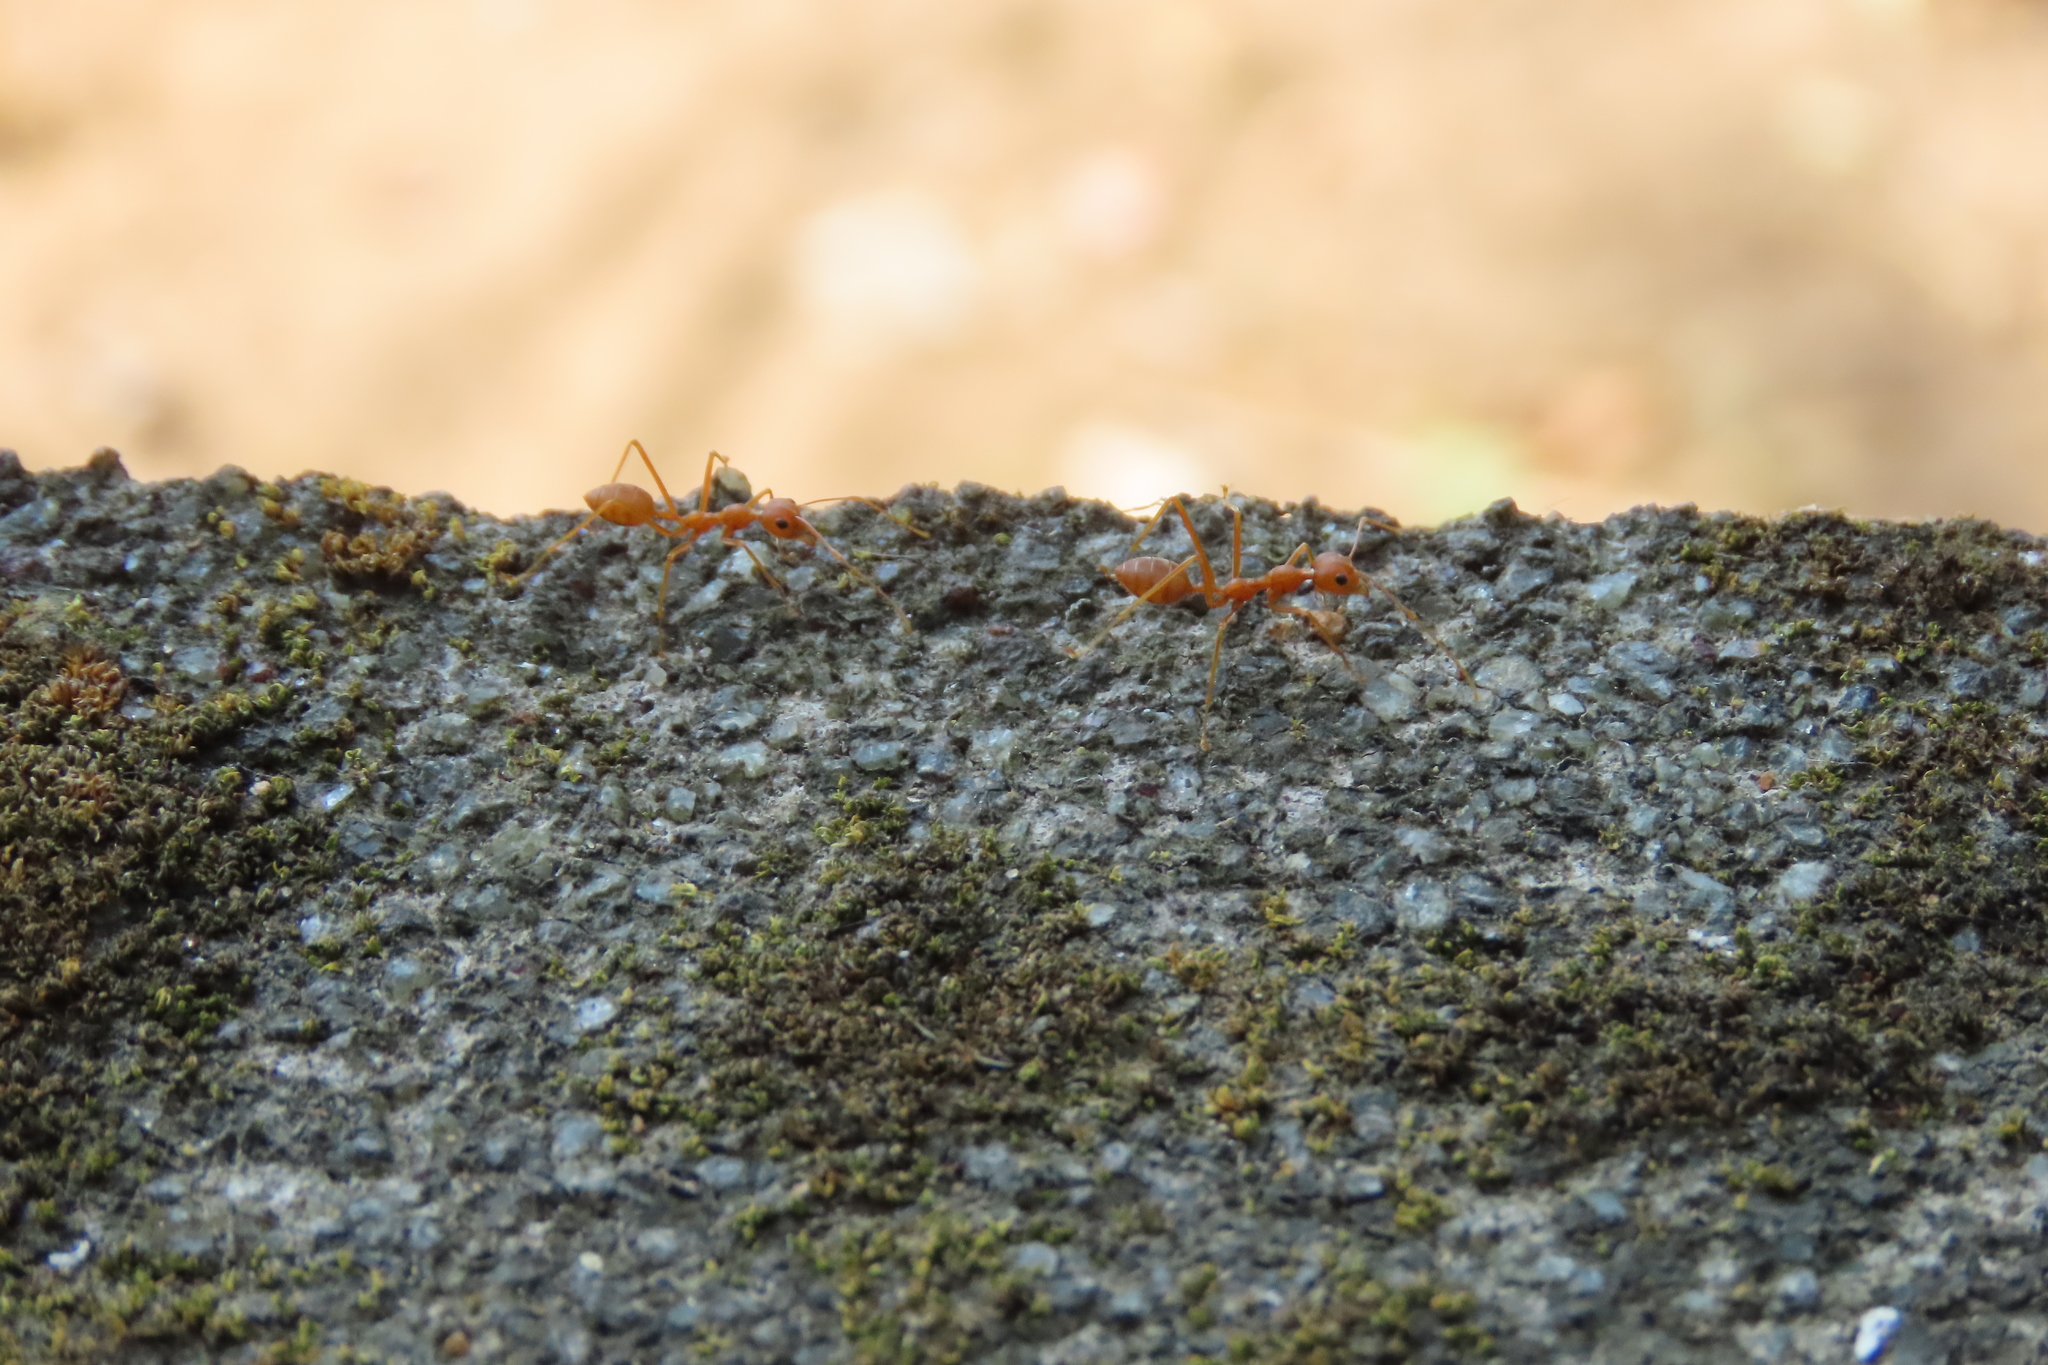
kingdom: Animalia
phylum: Arthropoda
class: Insecta
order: Hymenoptera
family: Formicidae
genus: Oecophylla
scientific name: Oecophylla smaragdina
